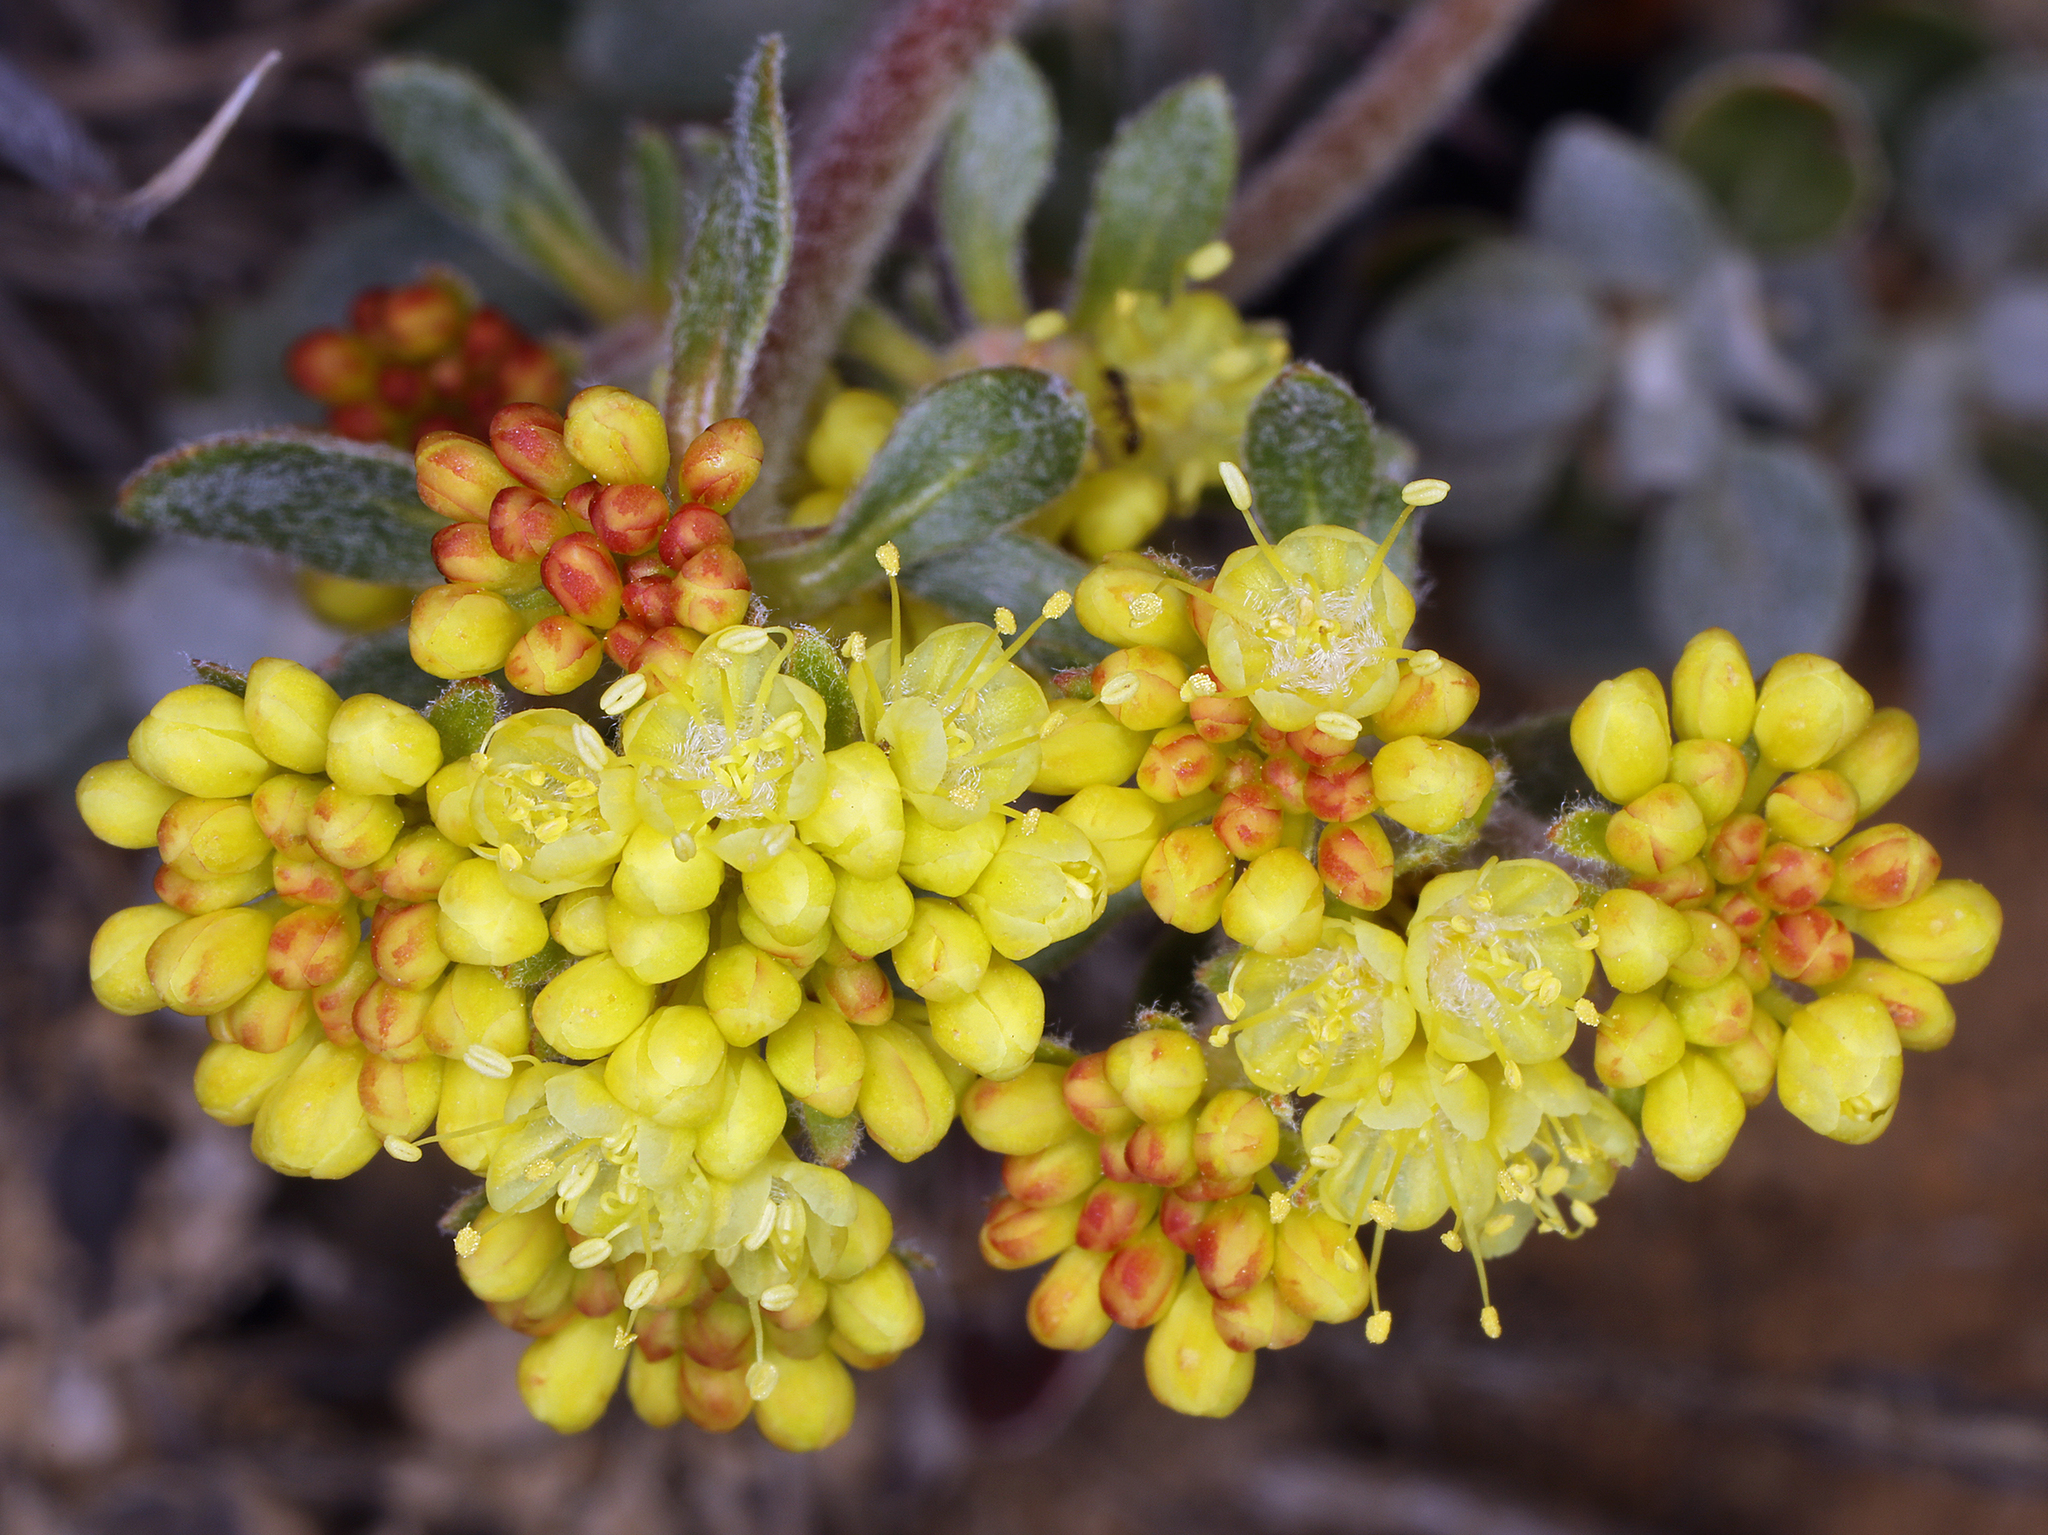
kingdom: Plantae
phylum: Tracheophyta
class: Magnoliopsida
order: Caryophyllales
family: Polygonaceae
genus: Eriogonum
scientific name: Eriogonum umbellatum
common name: Sulfur-buckwheat
